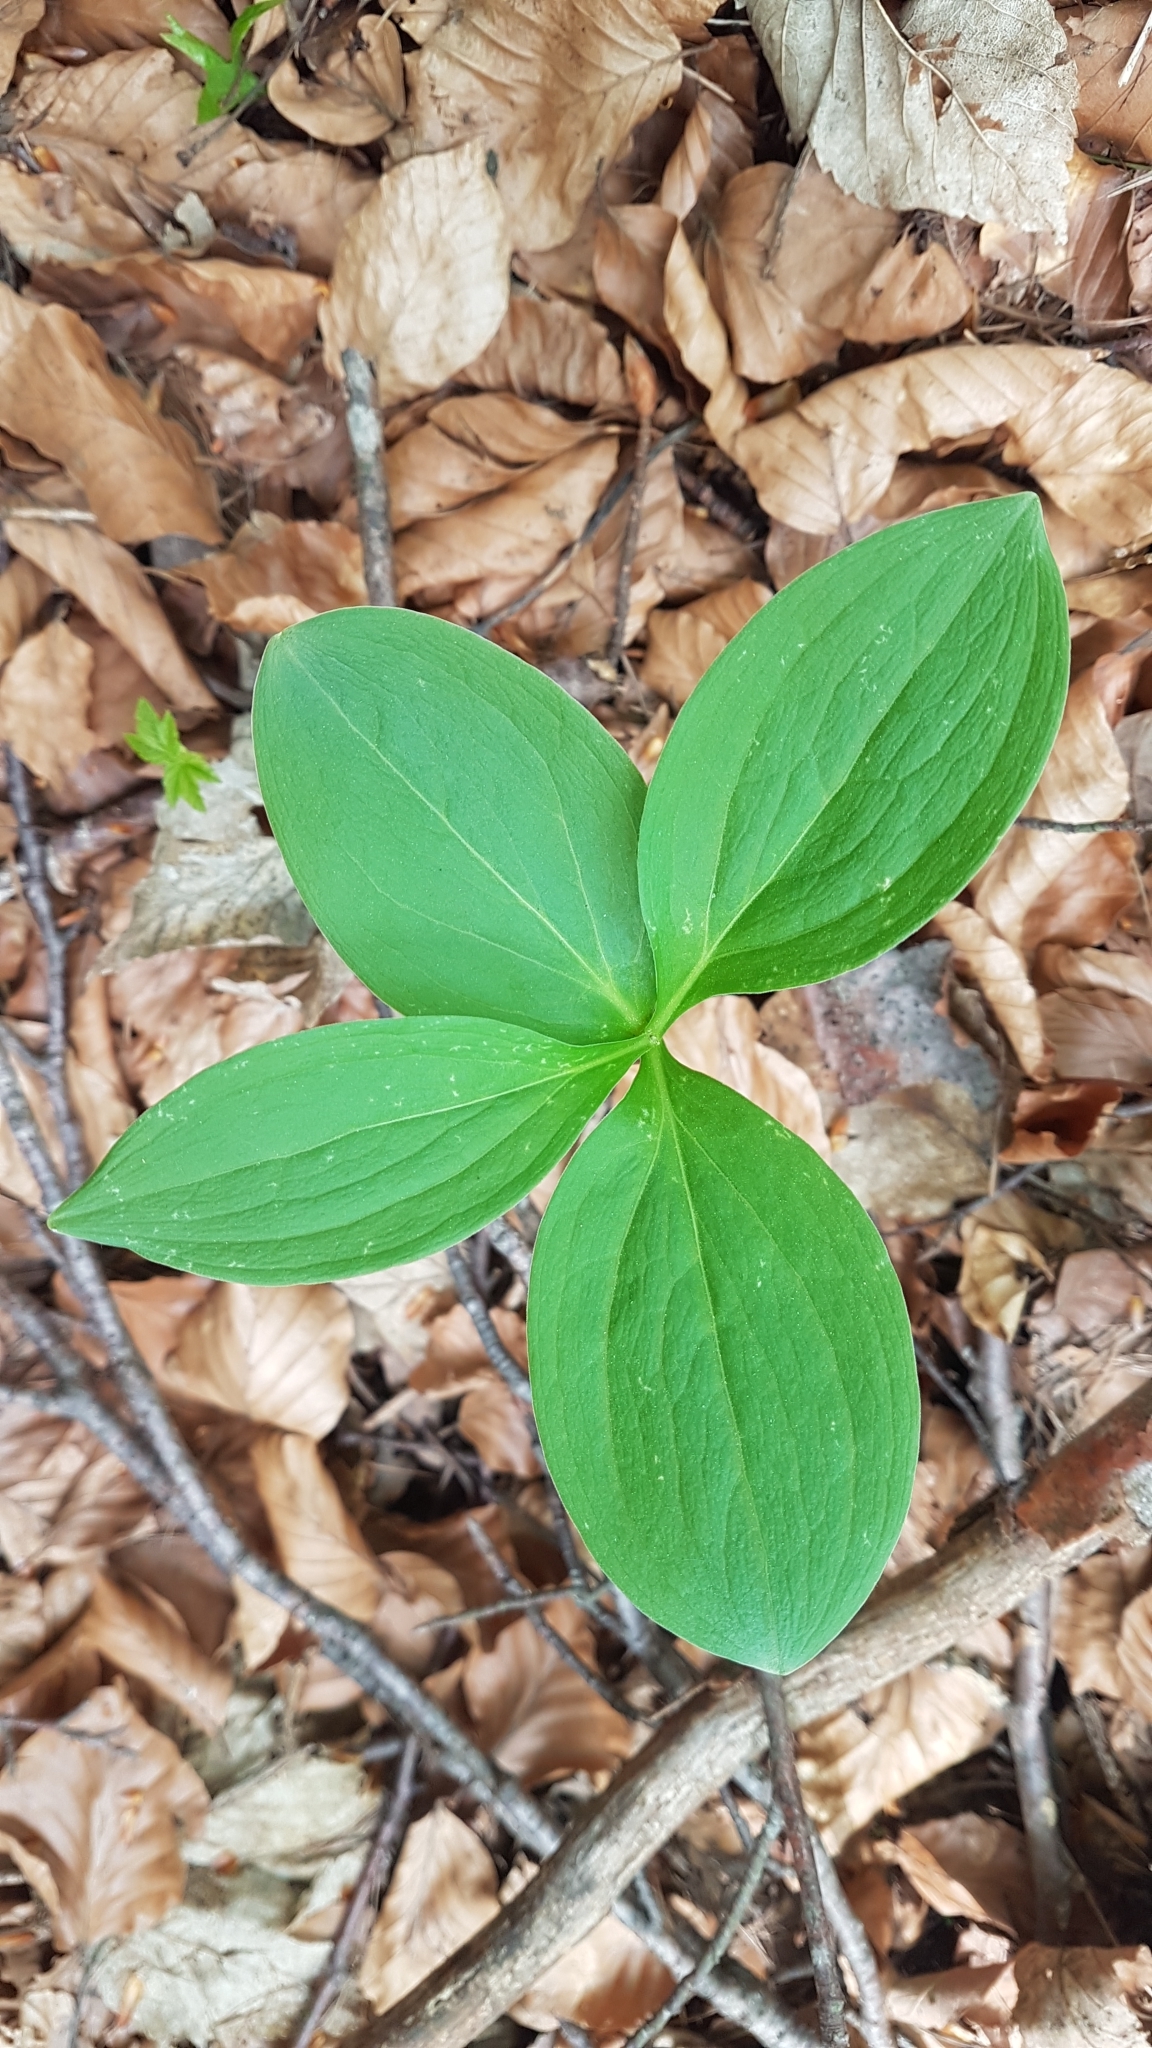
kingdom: Plantae
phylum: Tracheophyta
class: Liliopsida
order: Liliales
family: Melanthiaceae
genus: Paris
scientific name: Paris quadrifolia
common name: Herb-paris
